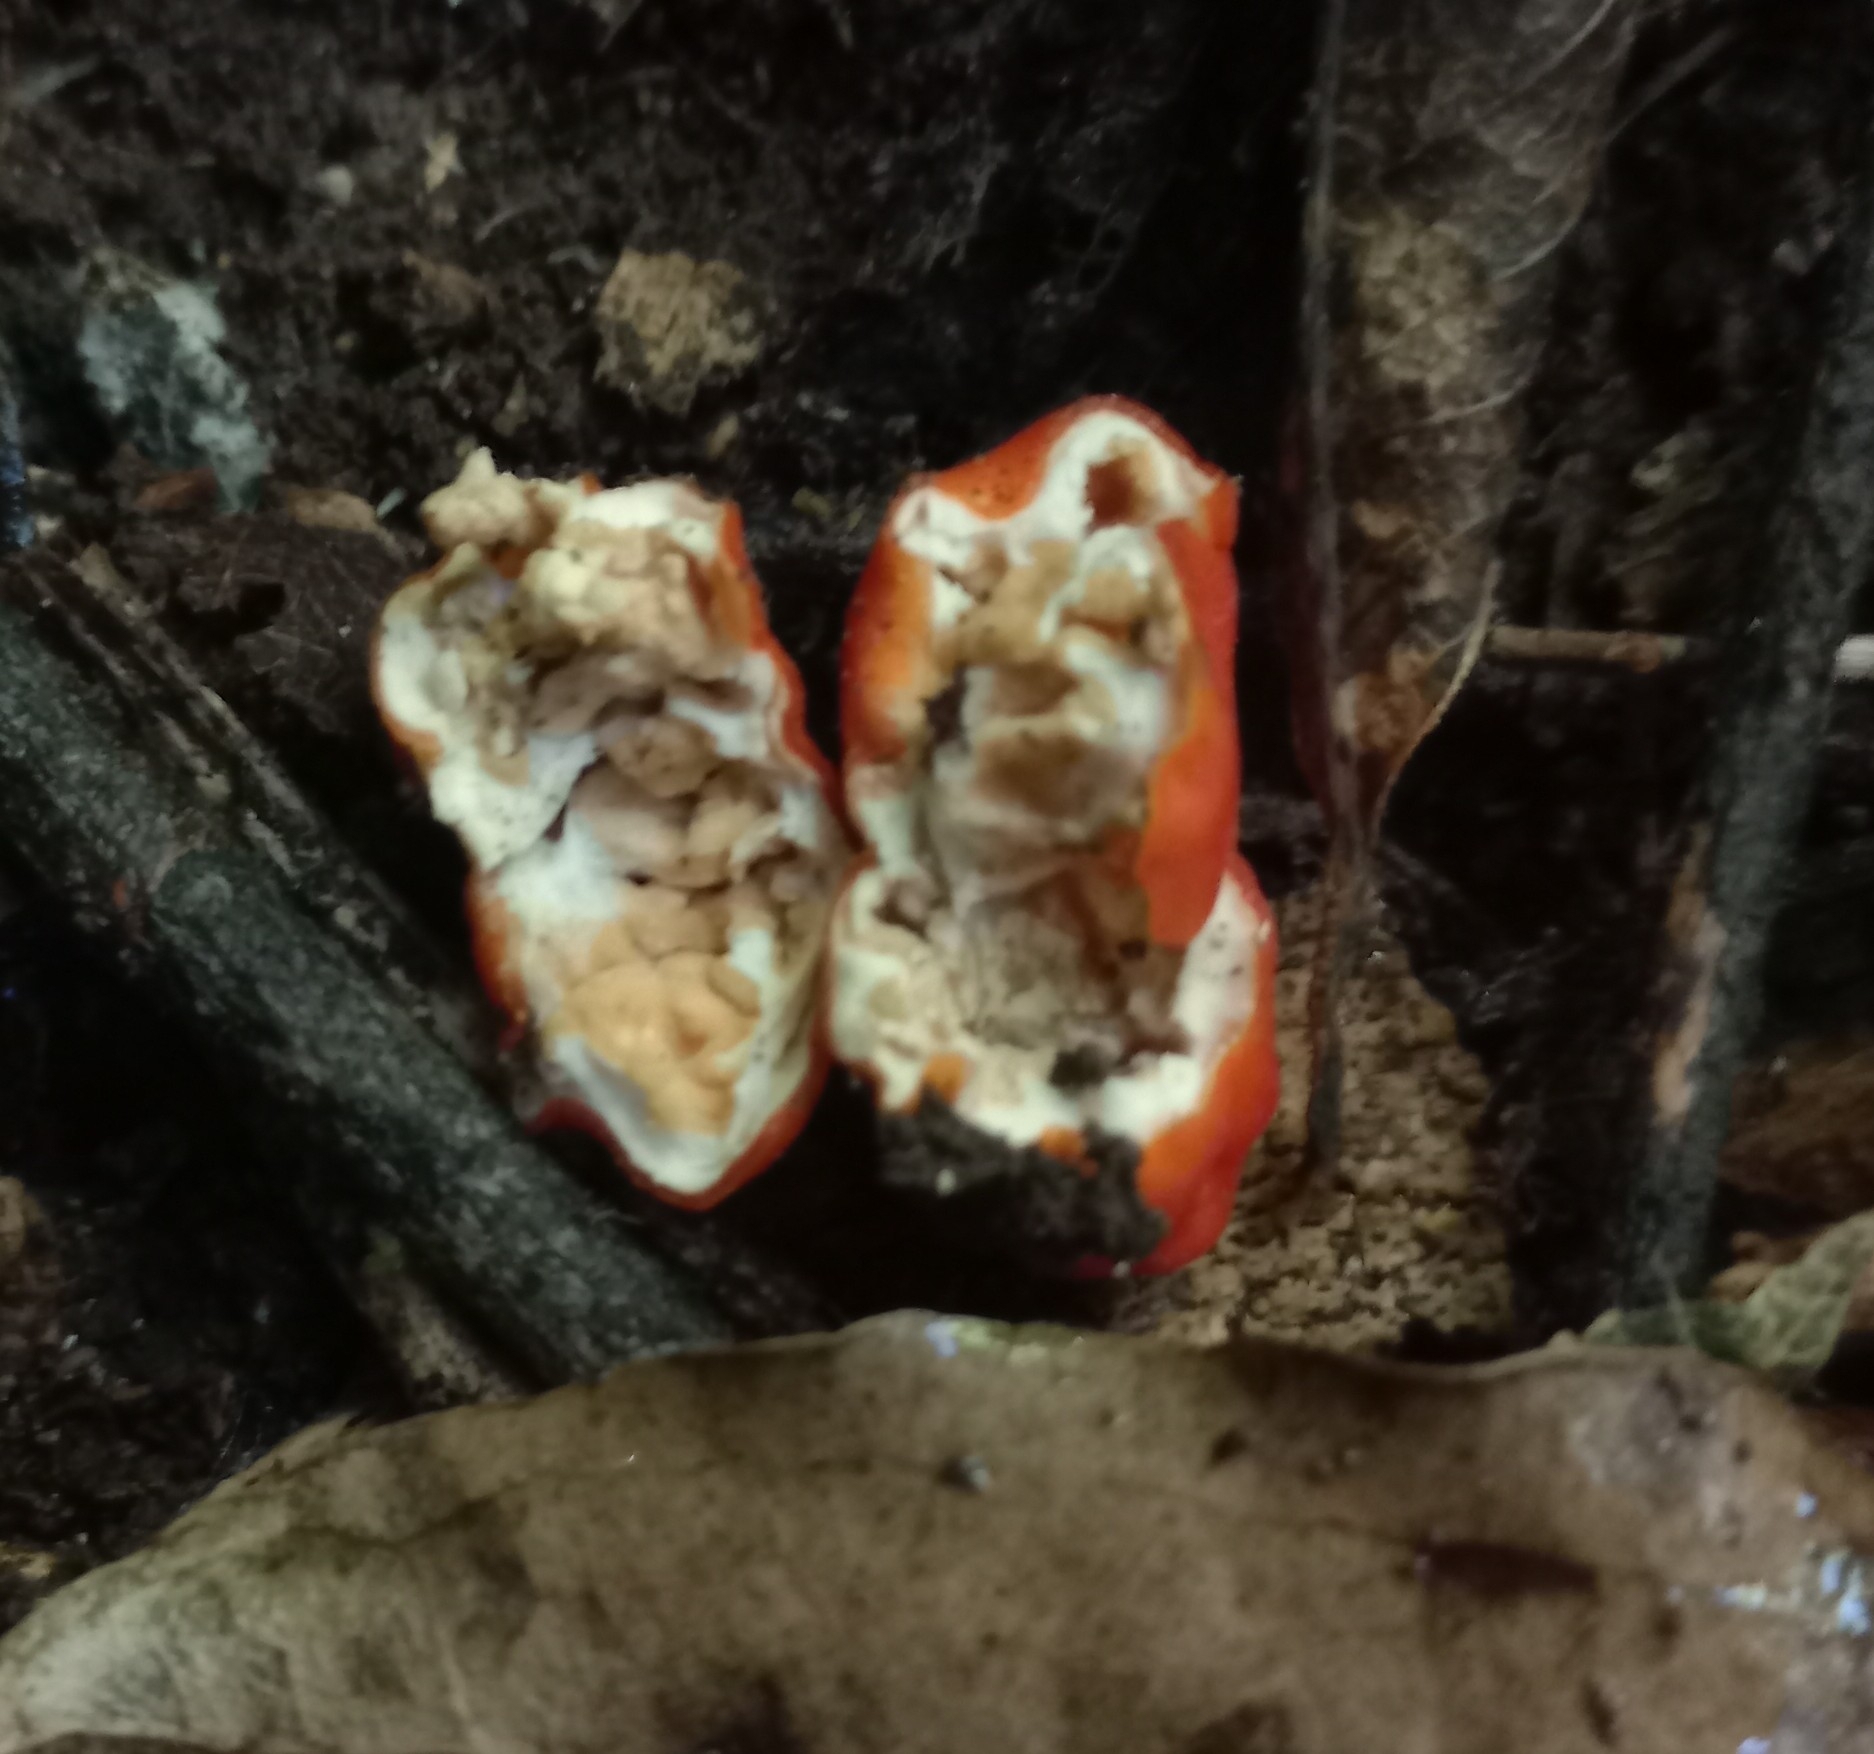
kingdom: Fungi
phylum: Ascomycota
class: Pezizomycetes
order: Pezizales
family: Pyronemataceae
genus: Paurocotylis
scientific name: Paurocotylis pila
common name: Scarlet berry truffle
